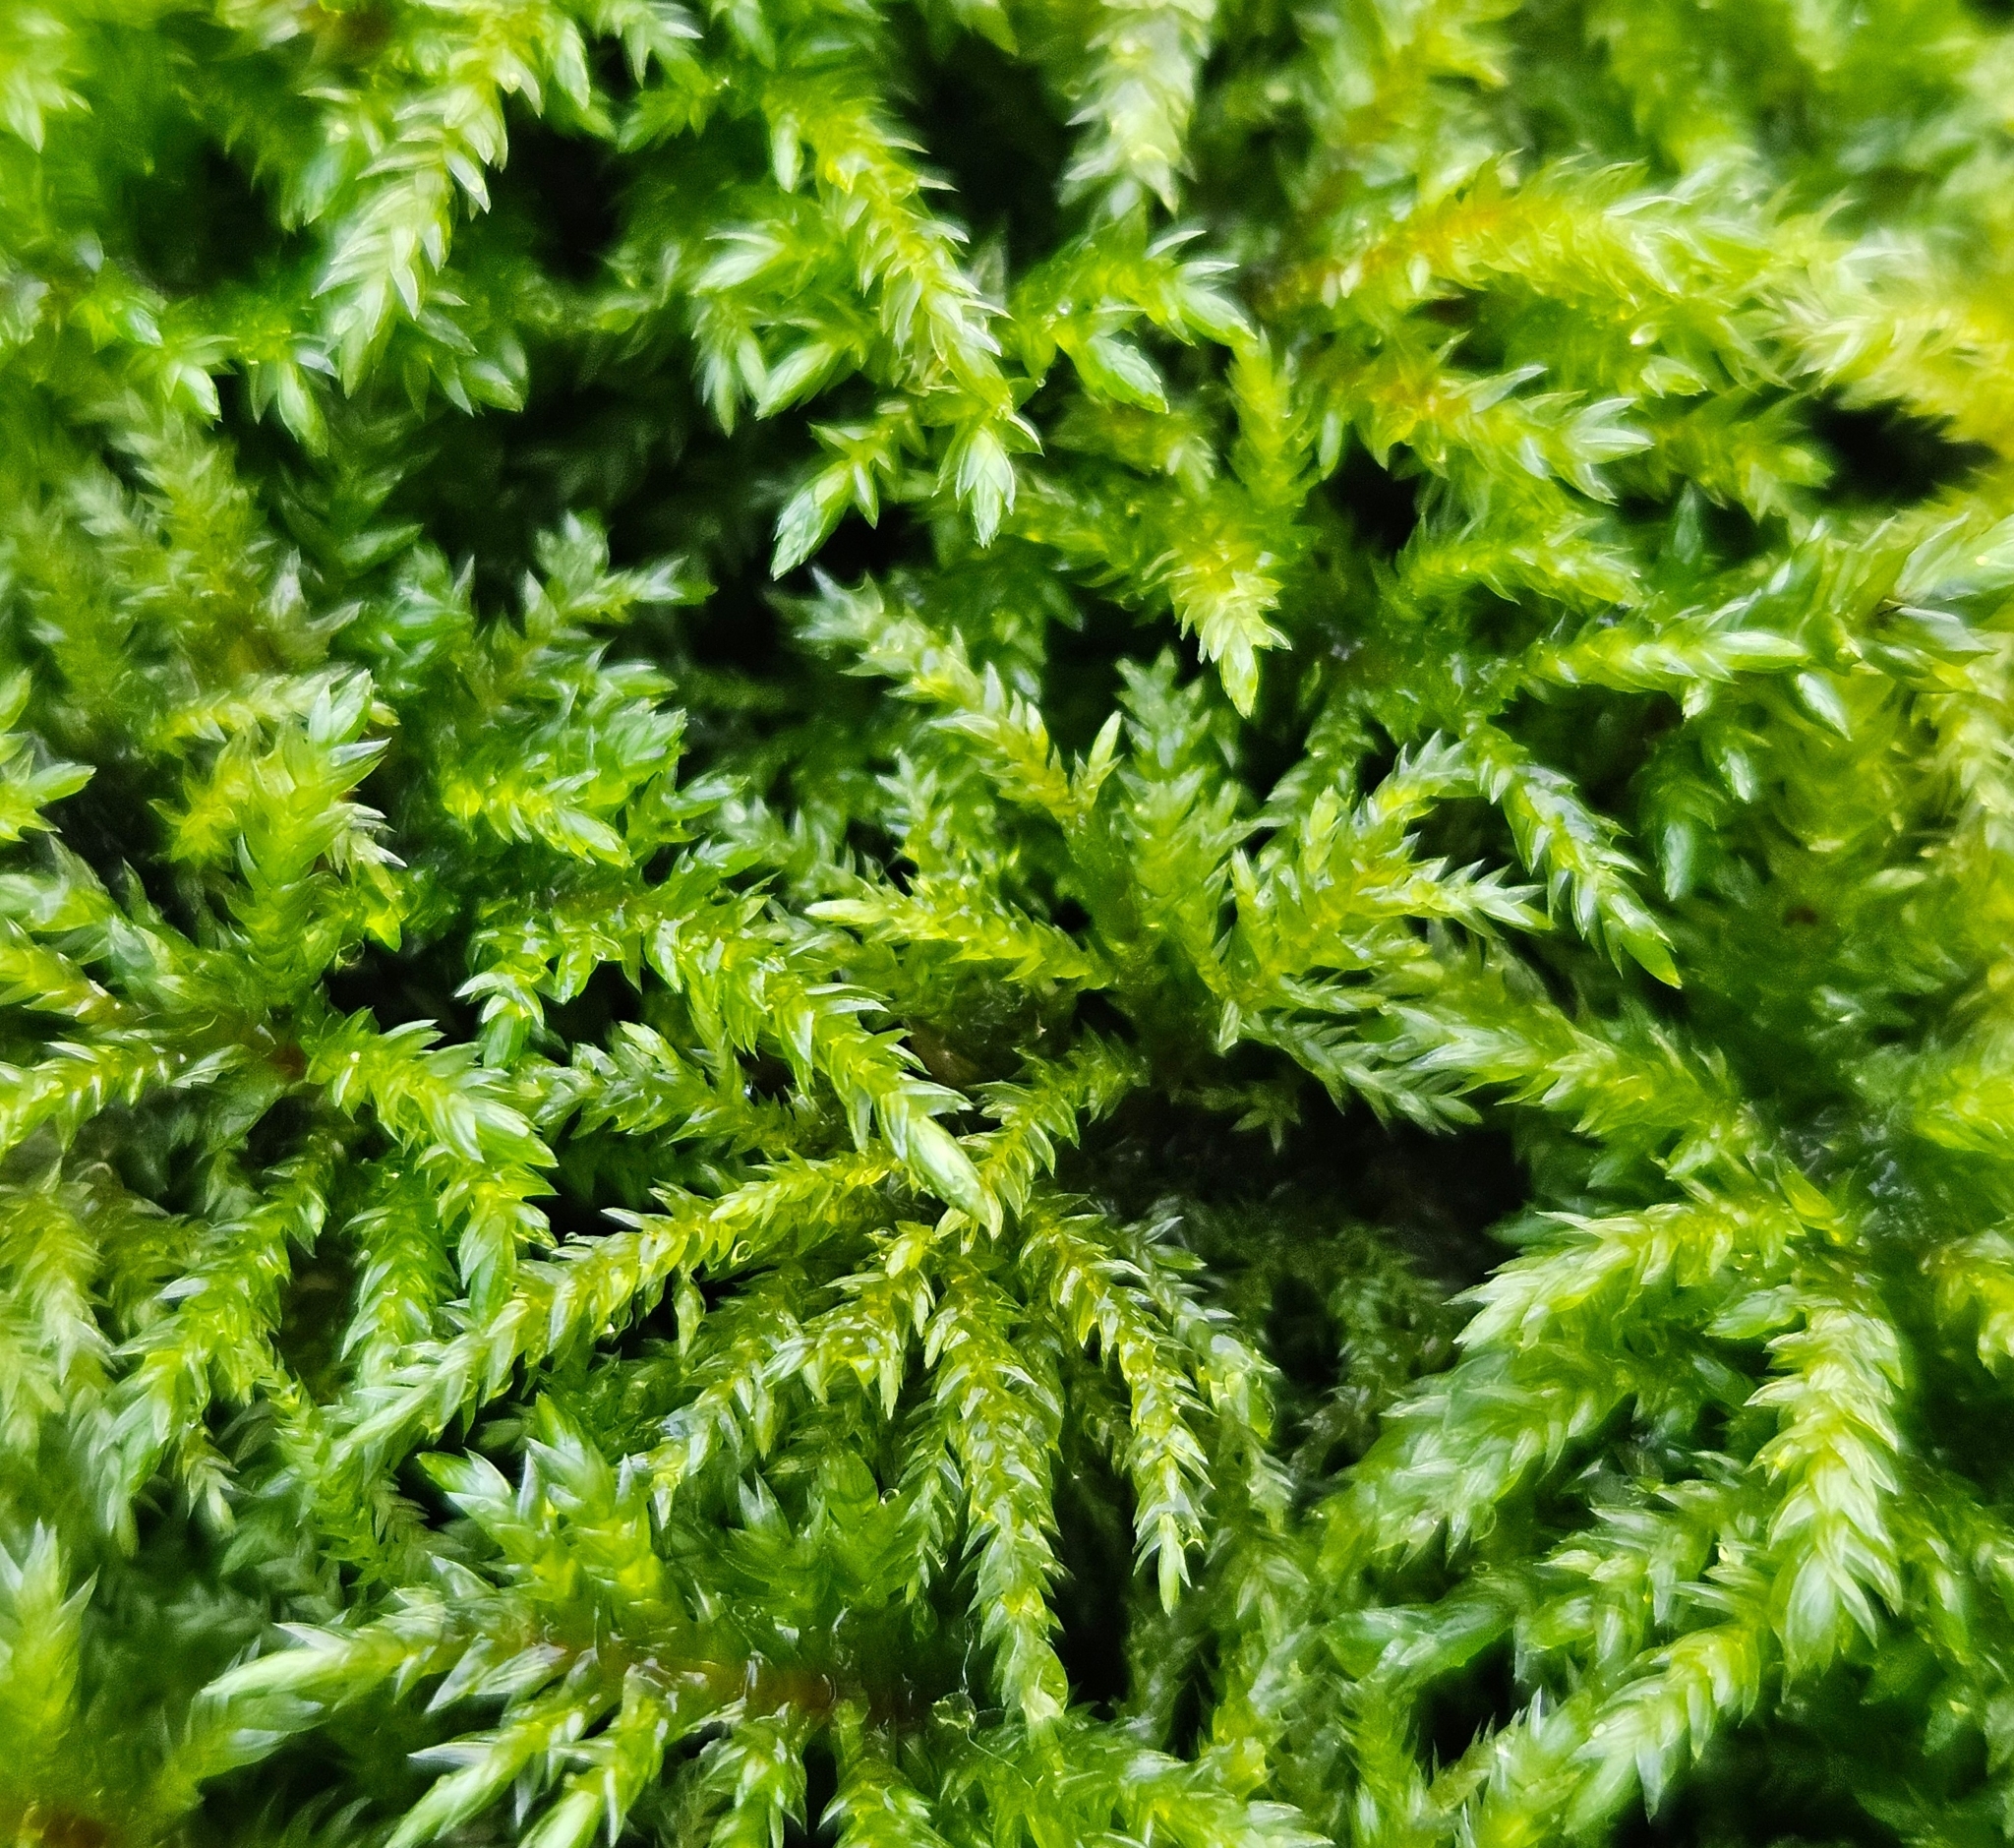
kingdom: Plantae
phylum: Bryophyta
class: Bryopsida
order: Hypnales
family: Neckeraceae
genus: Thamnobryum
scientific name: Thamnobryum alopecurum
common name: Fox-tail feather-moss
